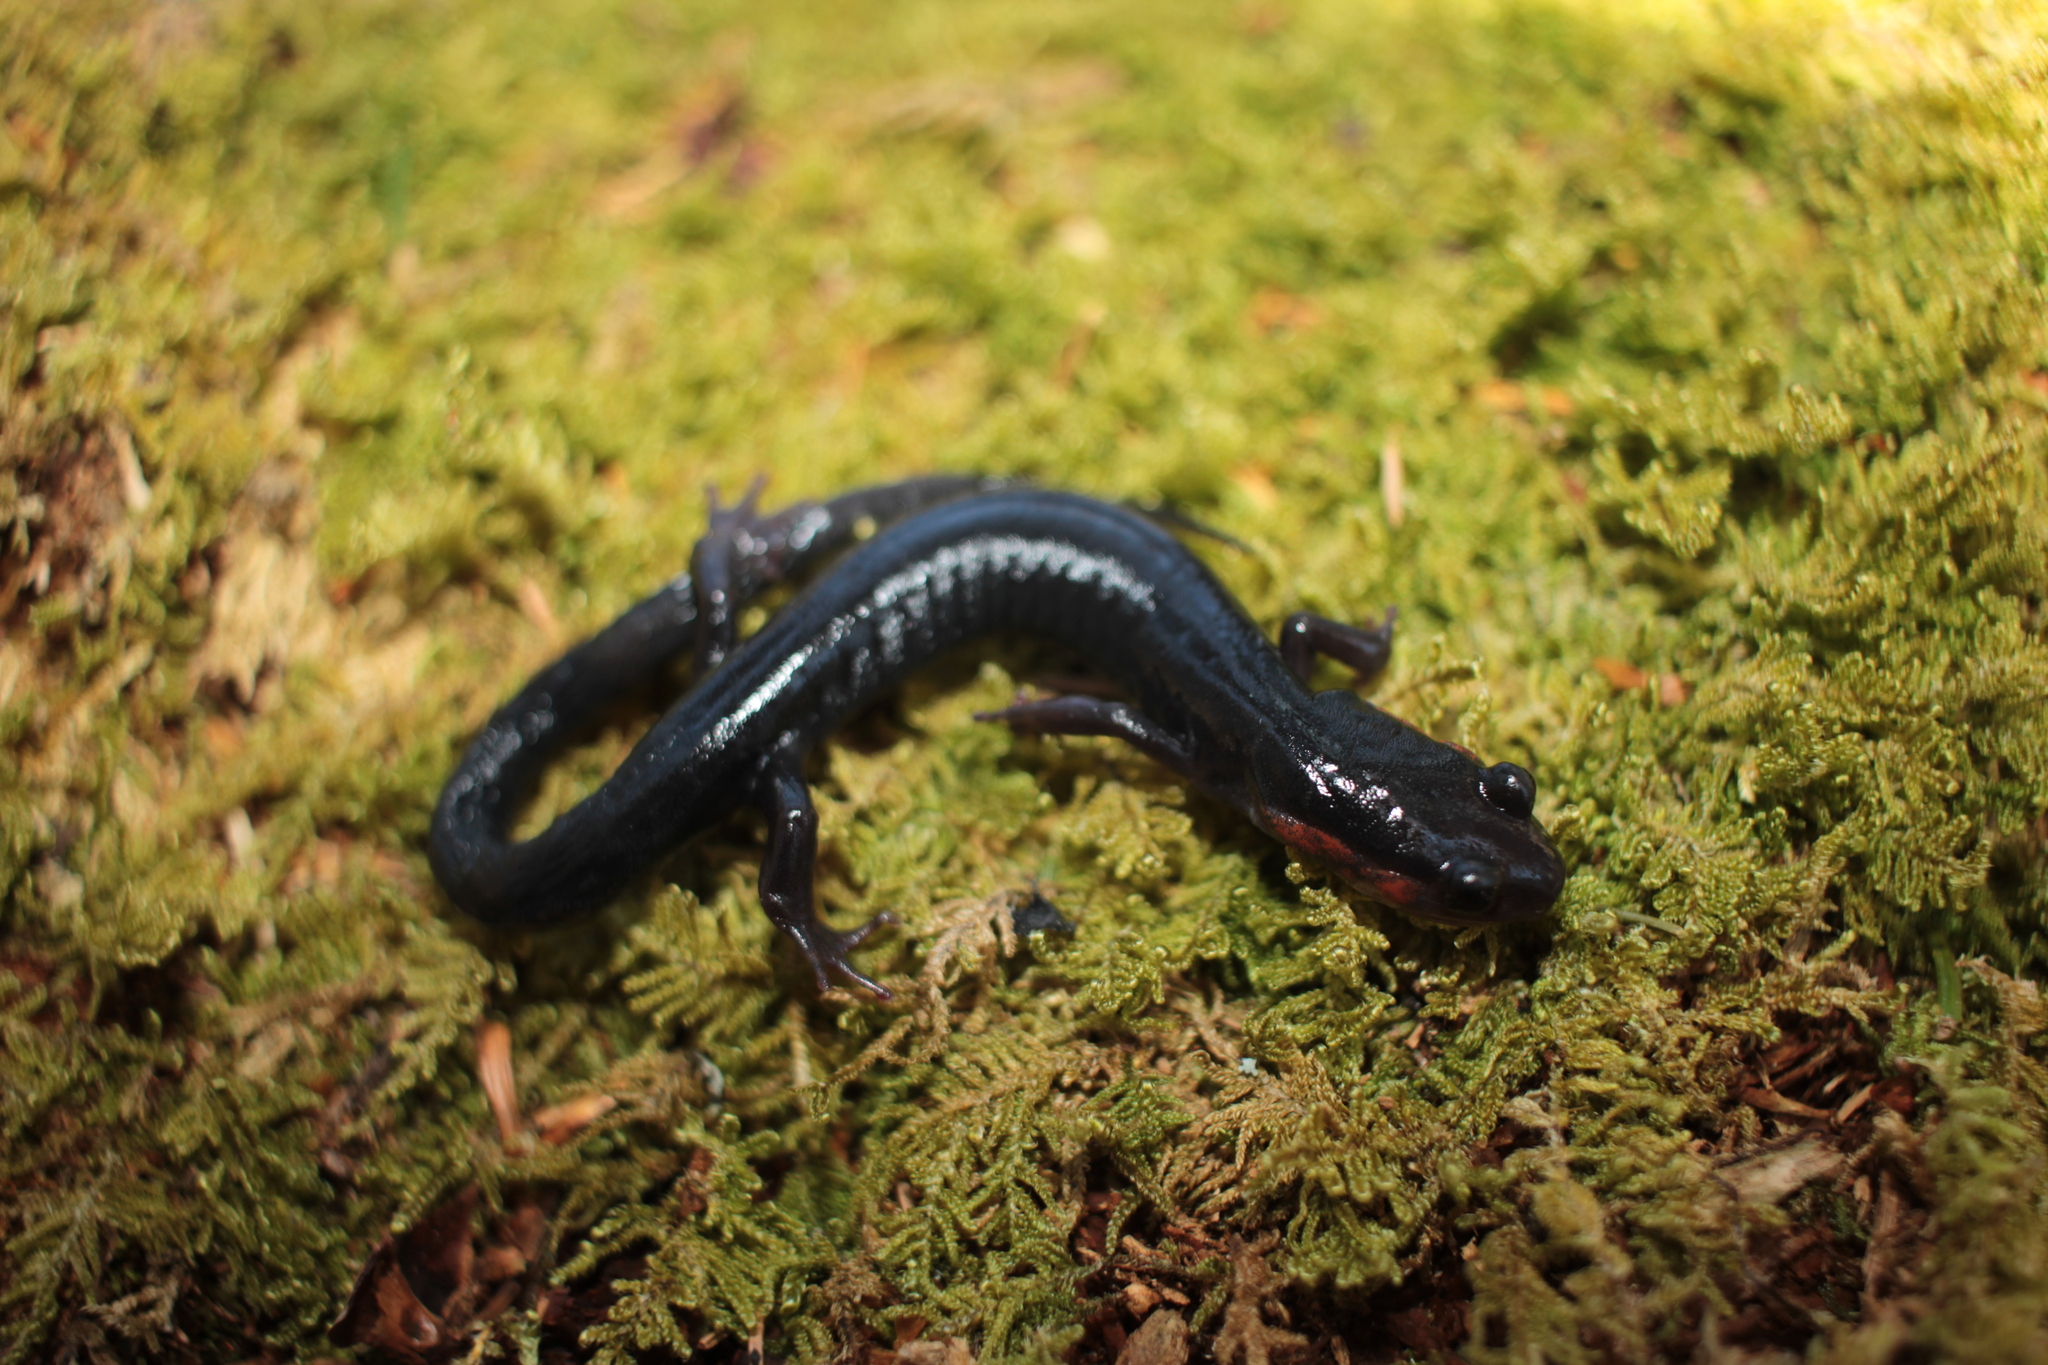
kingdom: Animalia
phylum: Chordata
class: Amphibia
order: Caudata
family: Plethodontidae
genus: Plethodon
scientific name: Plethodon jordani
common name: Red-cheeked salamander
